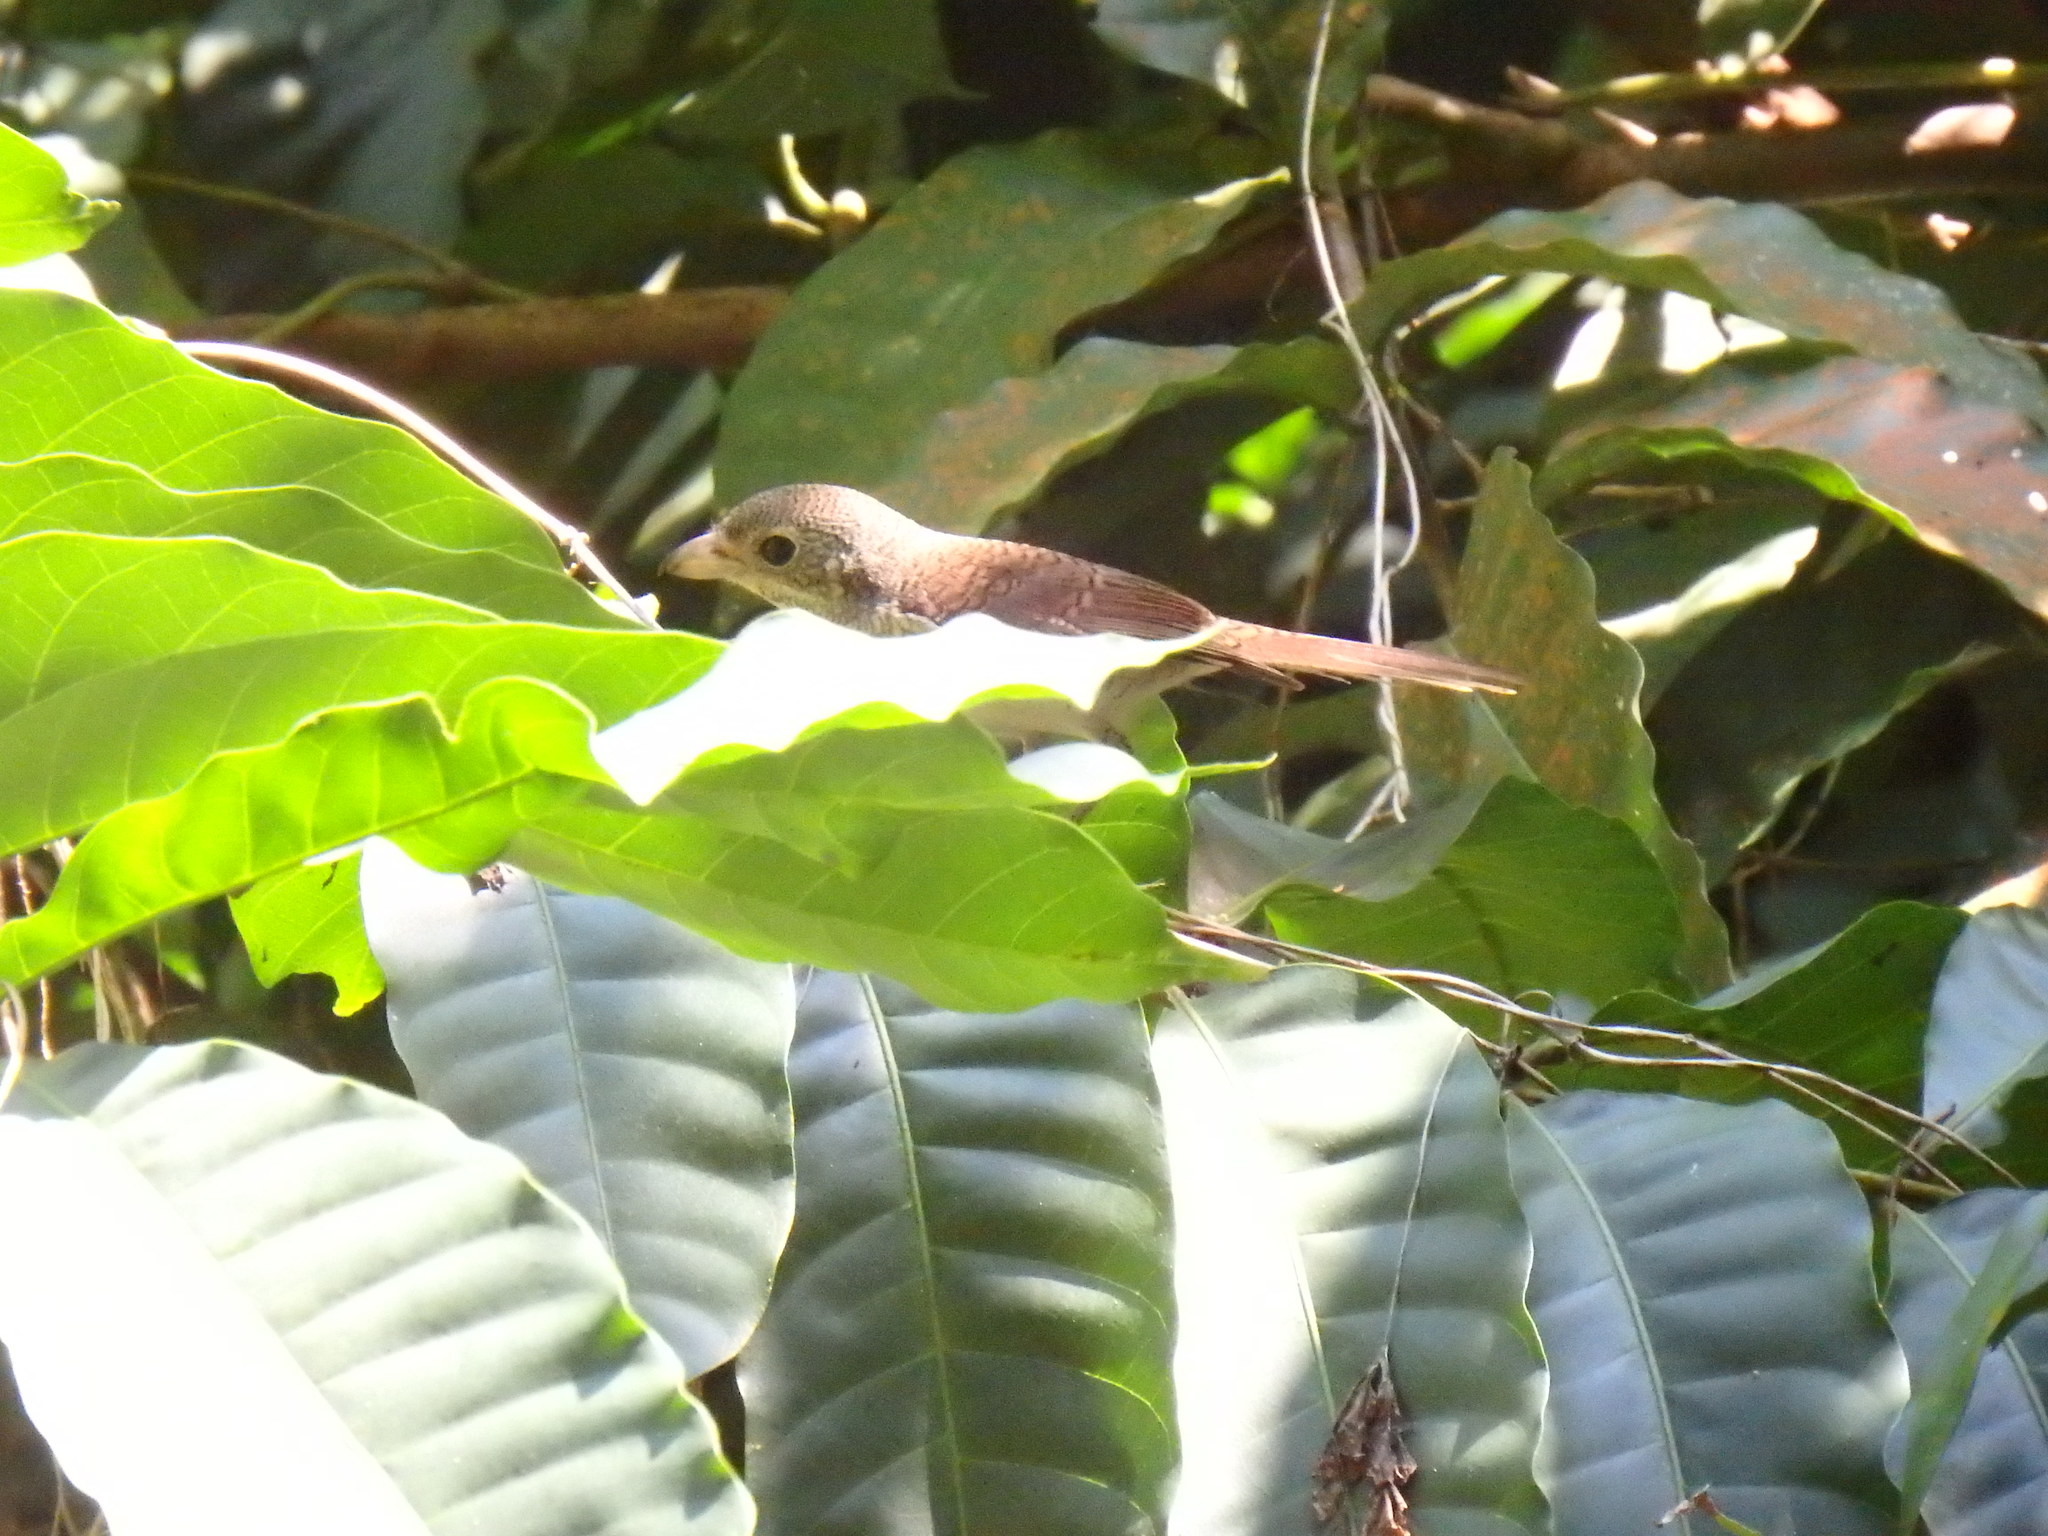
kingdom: Animalia
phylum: Chordata
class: Aves
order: Passeriformes
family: Laniidae
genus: Lanius
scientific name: Lanius tigrinus
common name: Tiger shrike
